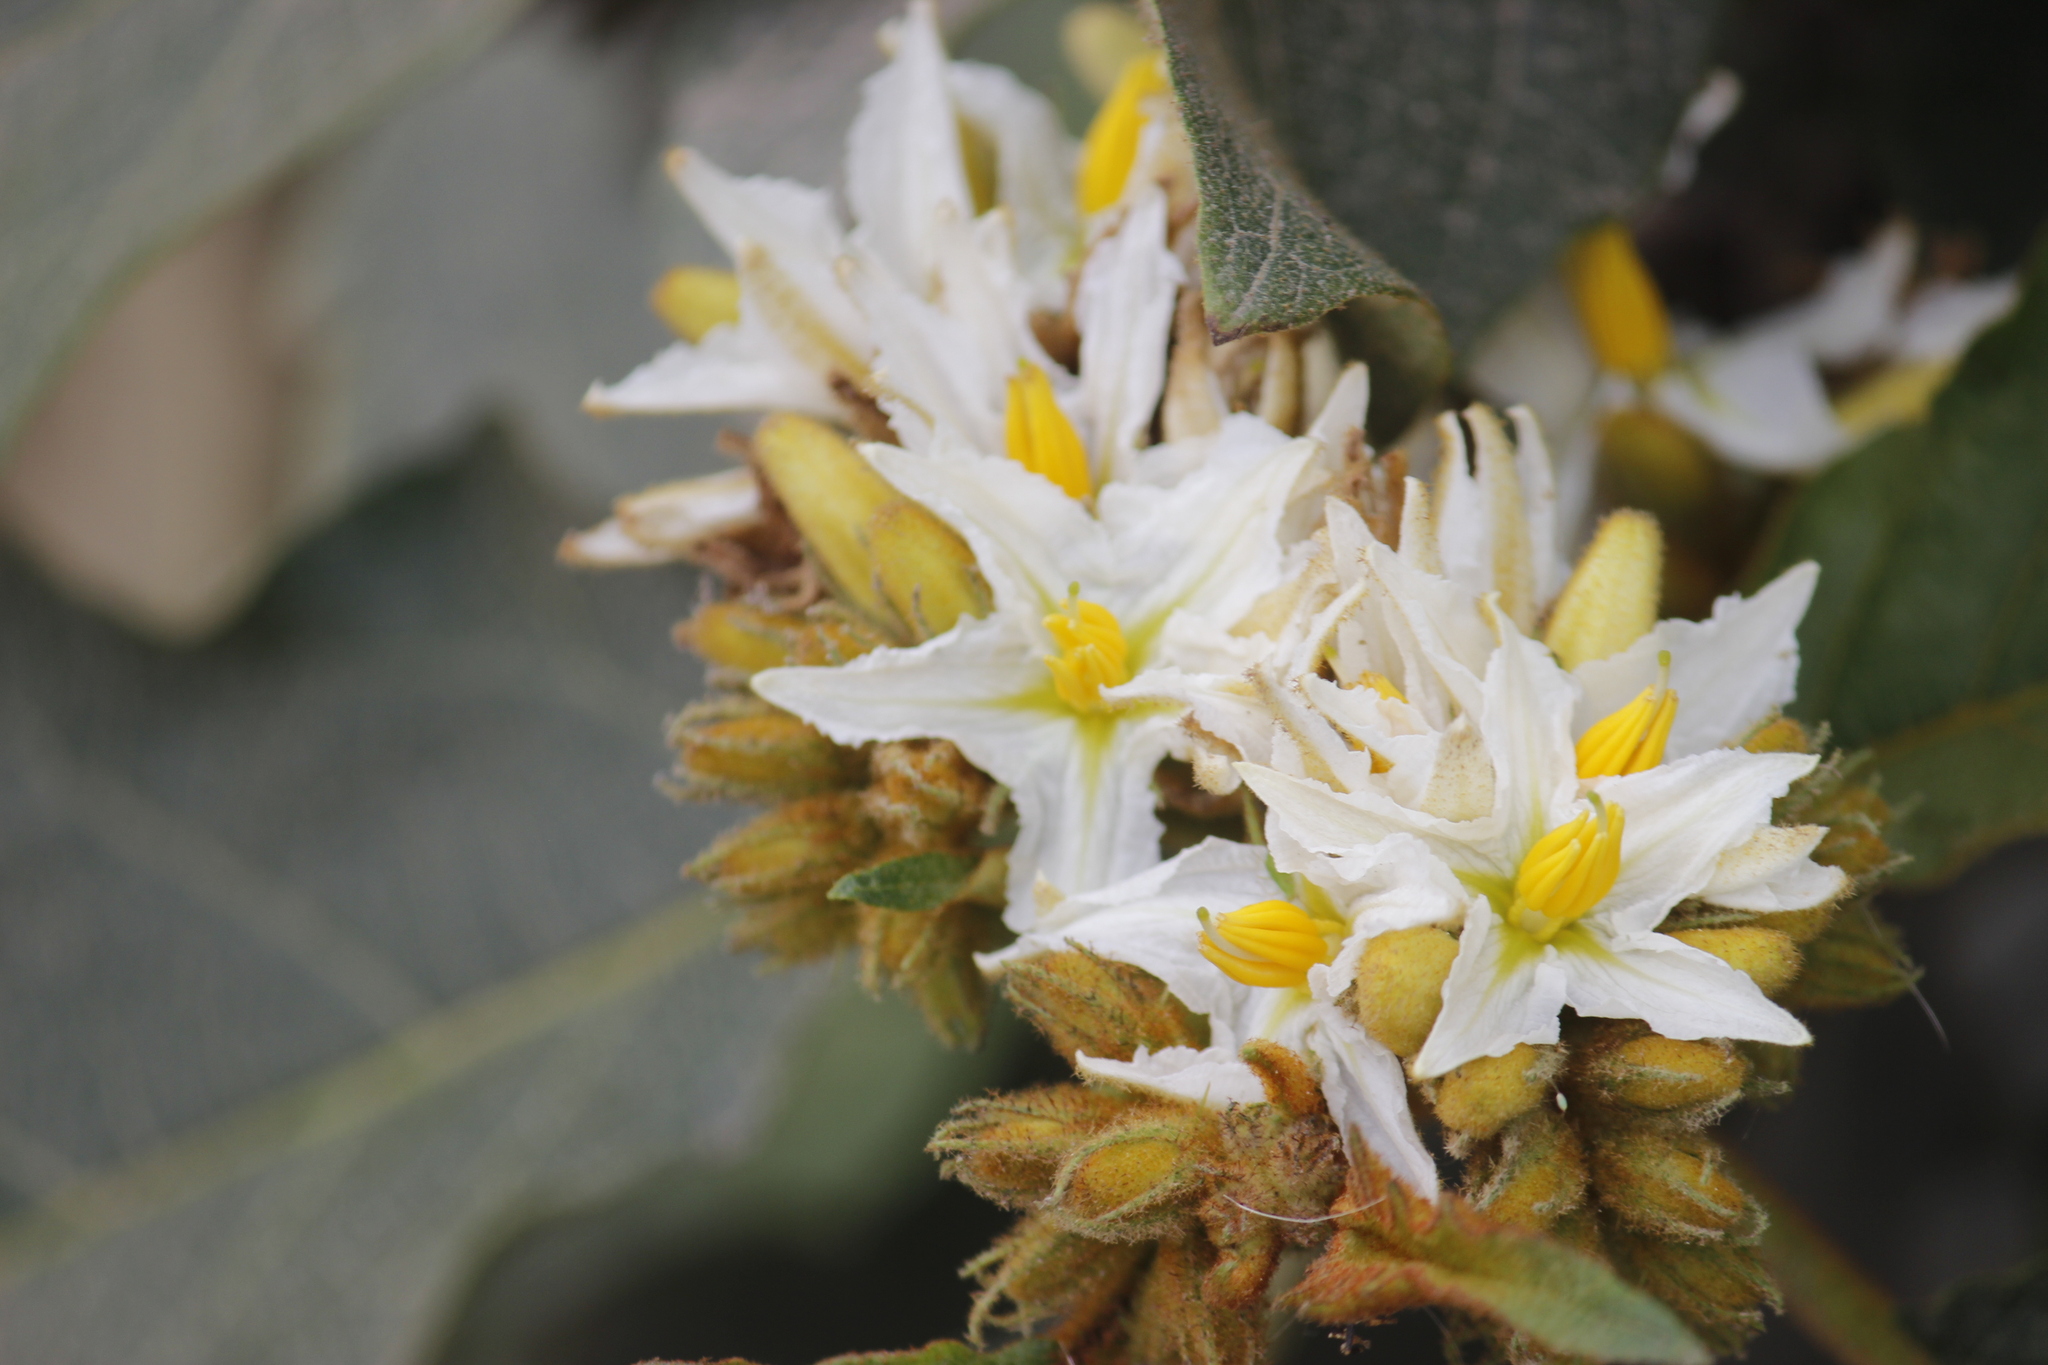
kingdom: Plantae
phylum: Tracheophyta
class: Magnoliopsida
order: Solanales
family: Solanaceae
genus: Solanum
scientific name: Solanum chrysotrichum
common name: Nightshade
